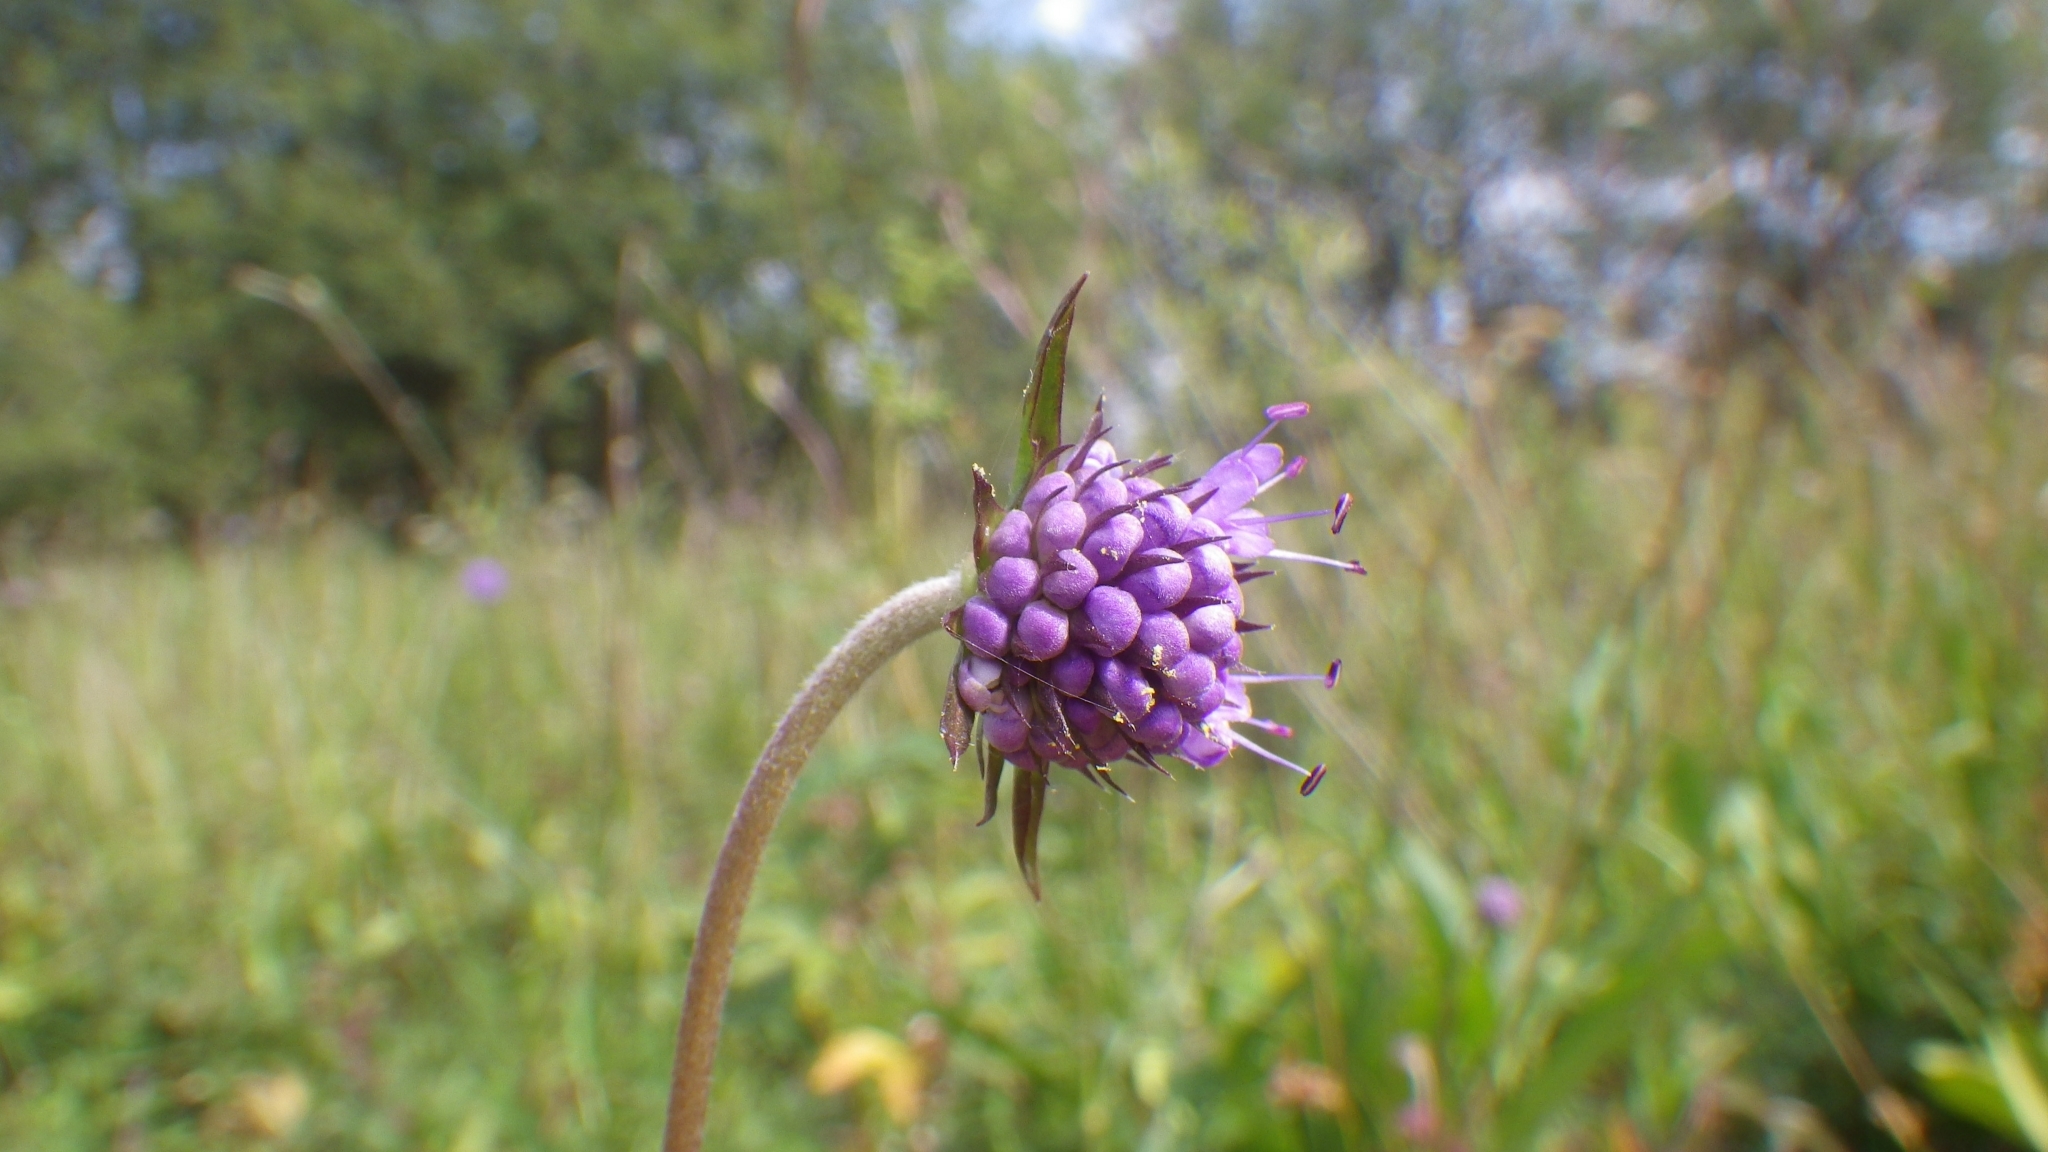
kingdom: Plantae
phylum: Tracheophyta
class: Magnoliopsida
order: Dipsacales
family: Caprifoliaceae
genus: Succisa
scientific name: Succisa pratensis
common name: Devil's-bit
